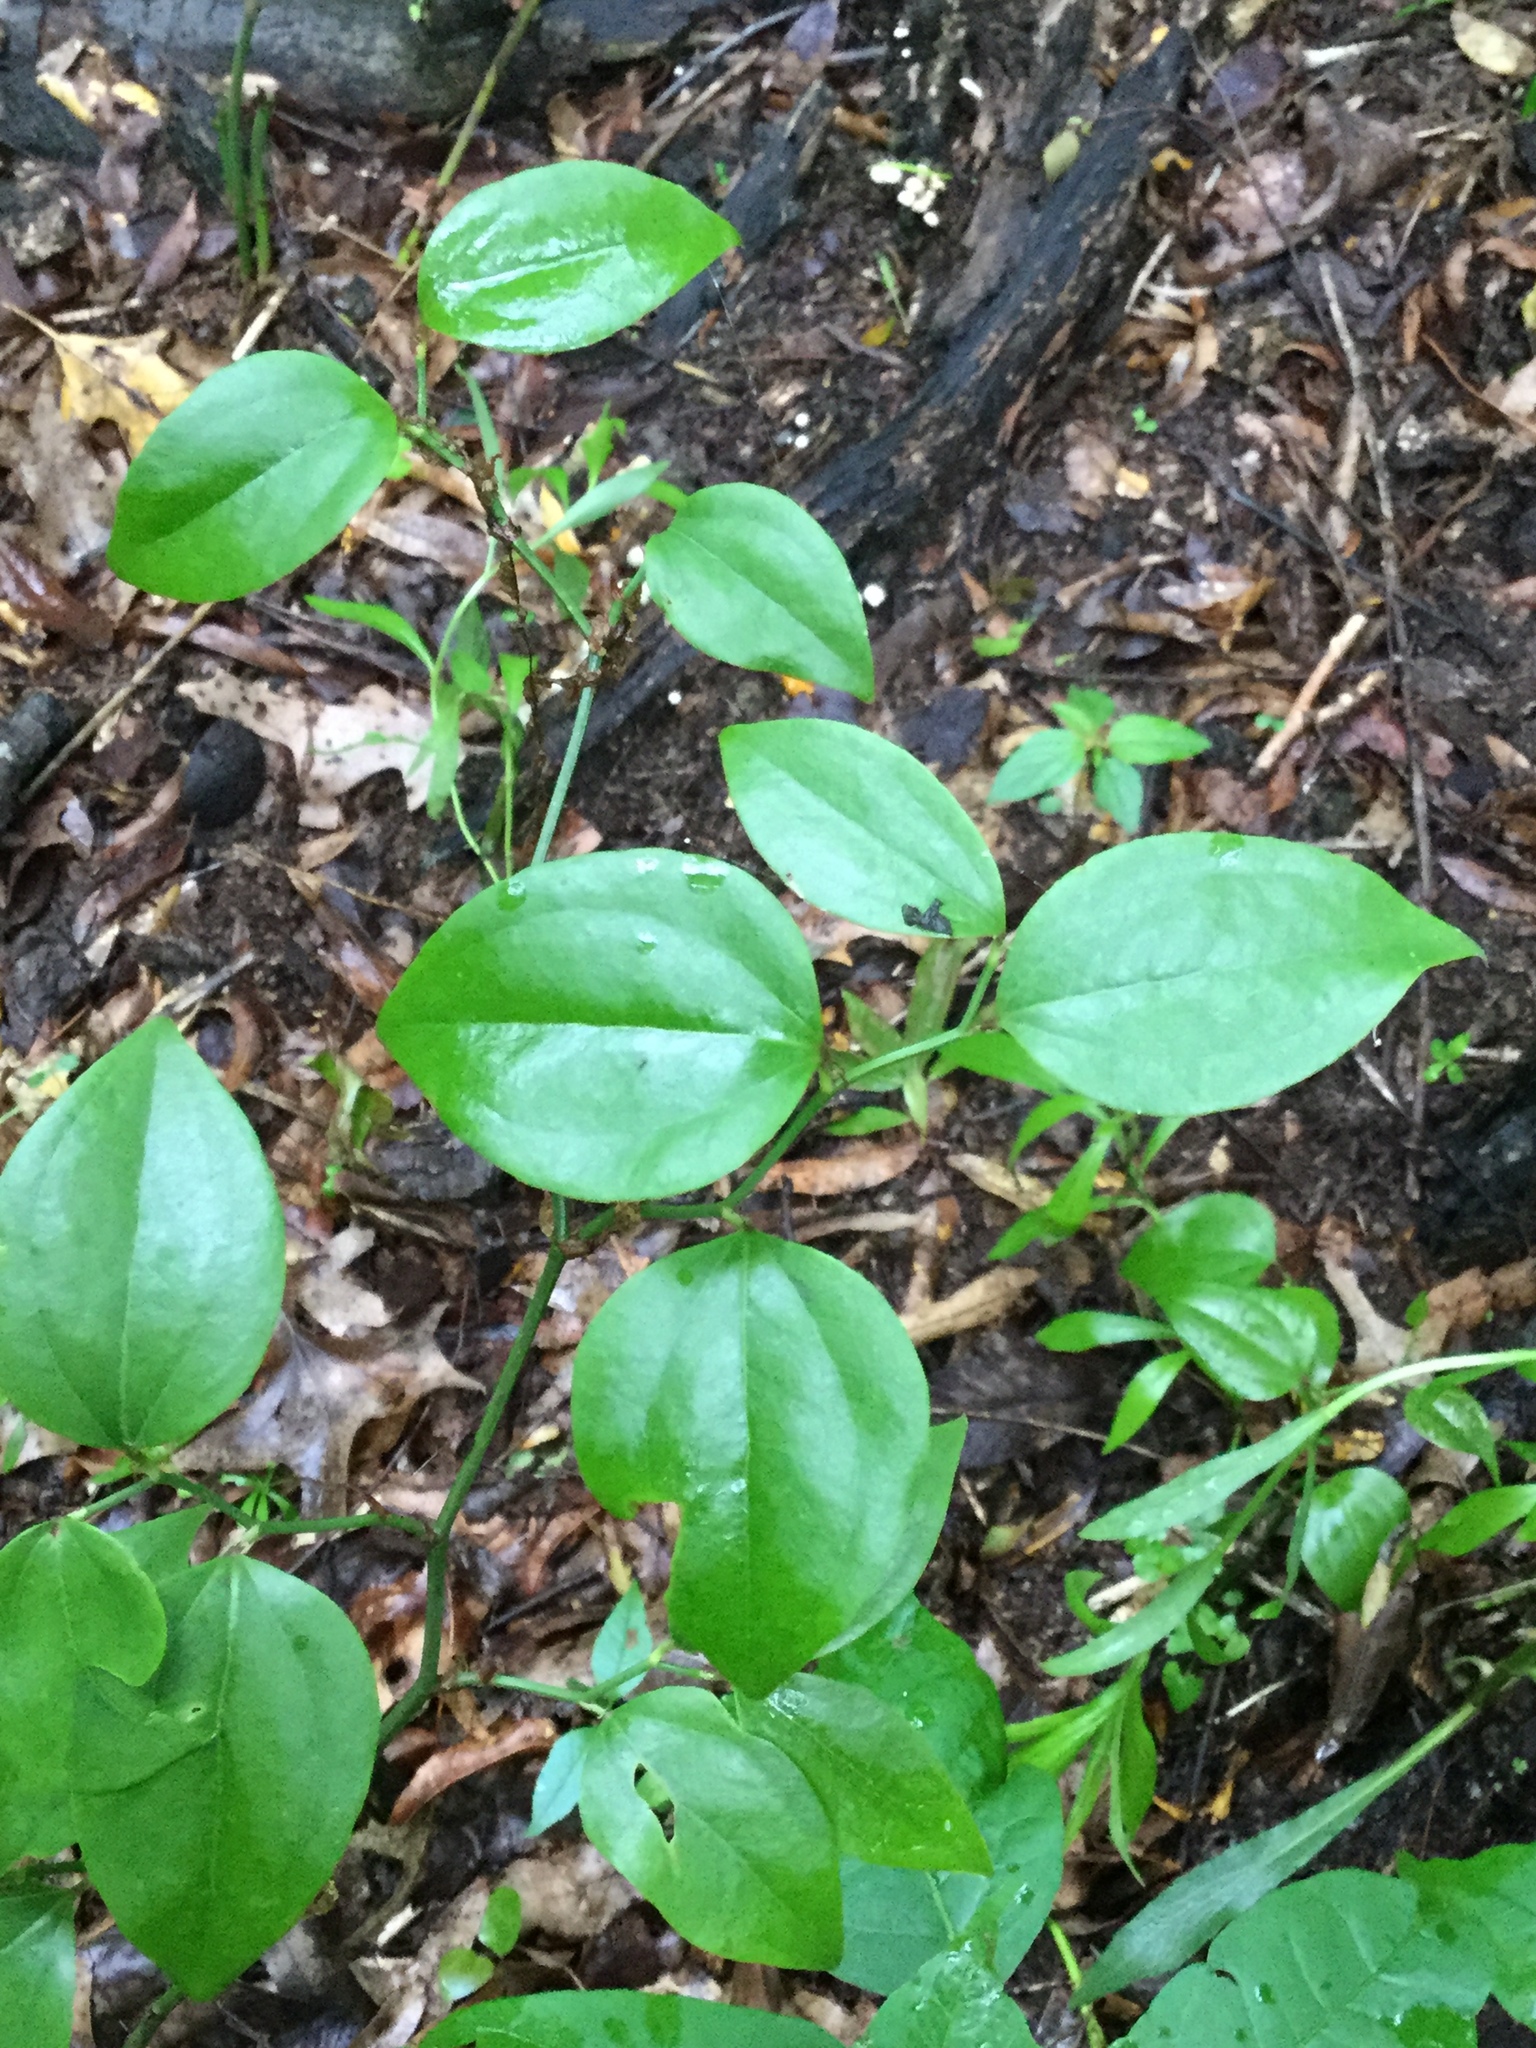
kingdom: Plantae
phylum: Tracheophyta
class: Liliopsida
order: Liliales
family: Smilacaceae
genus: Smilax
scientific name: Smilax rotundifolia
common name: Bullbriar
